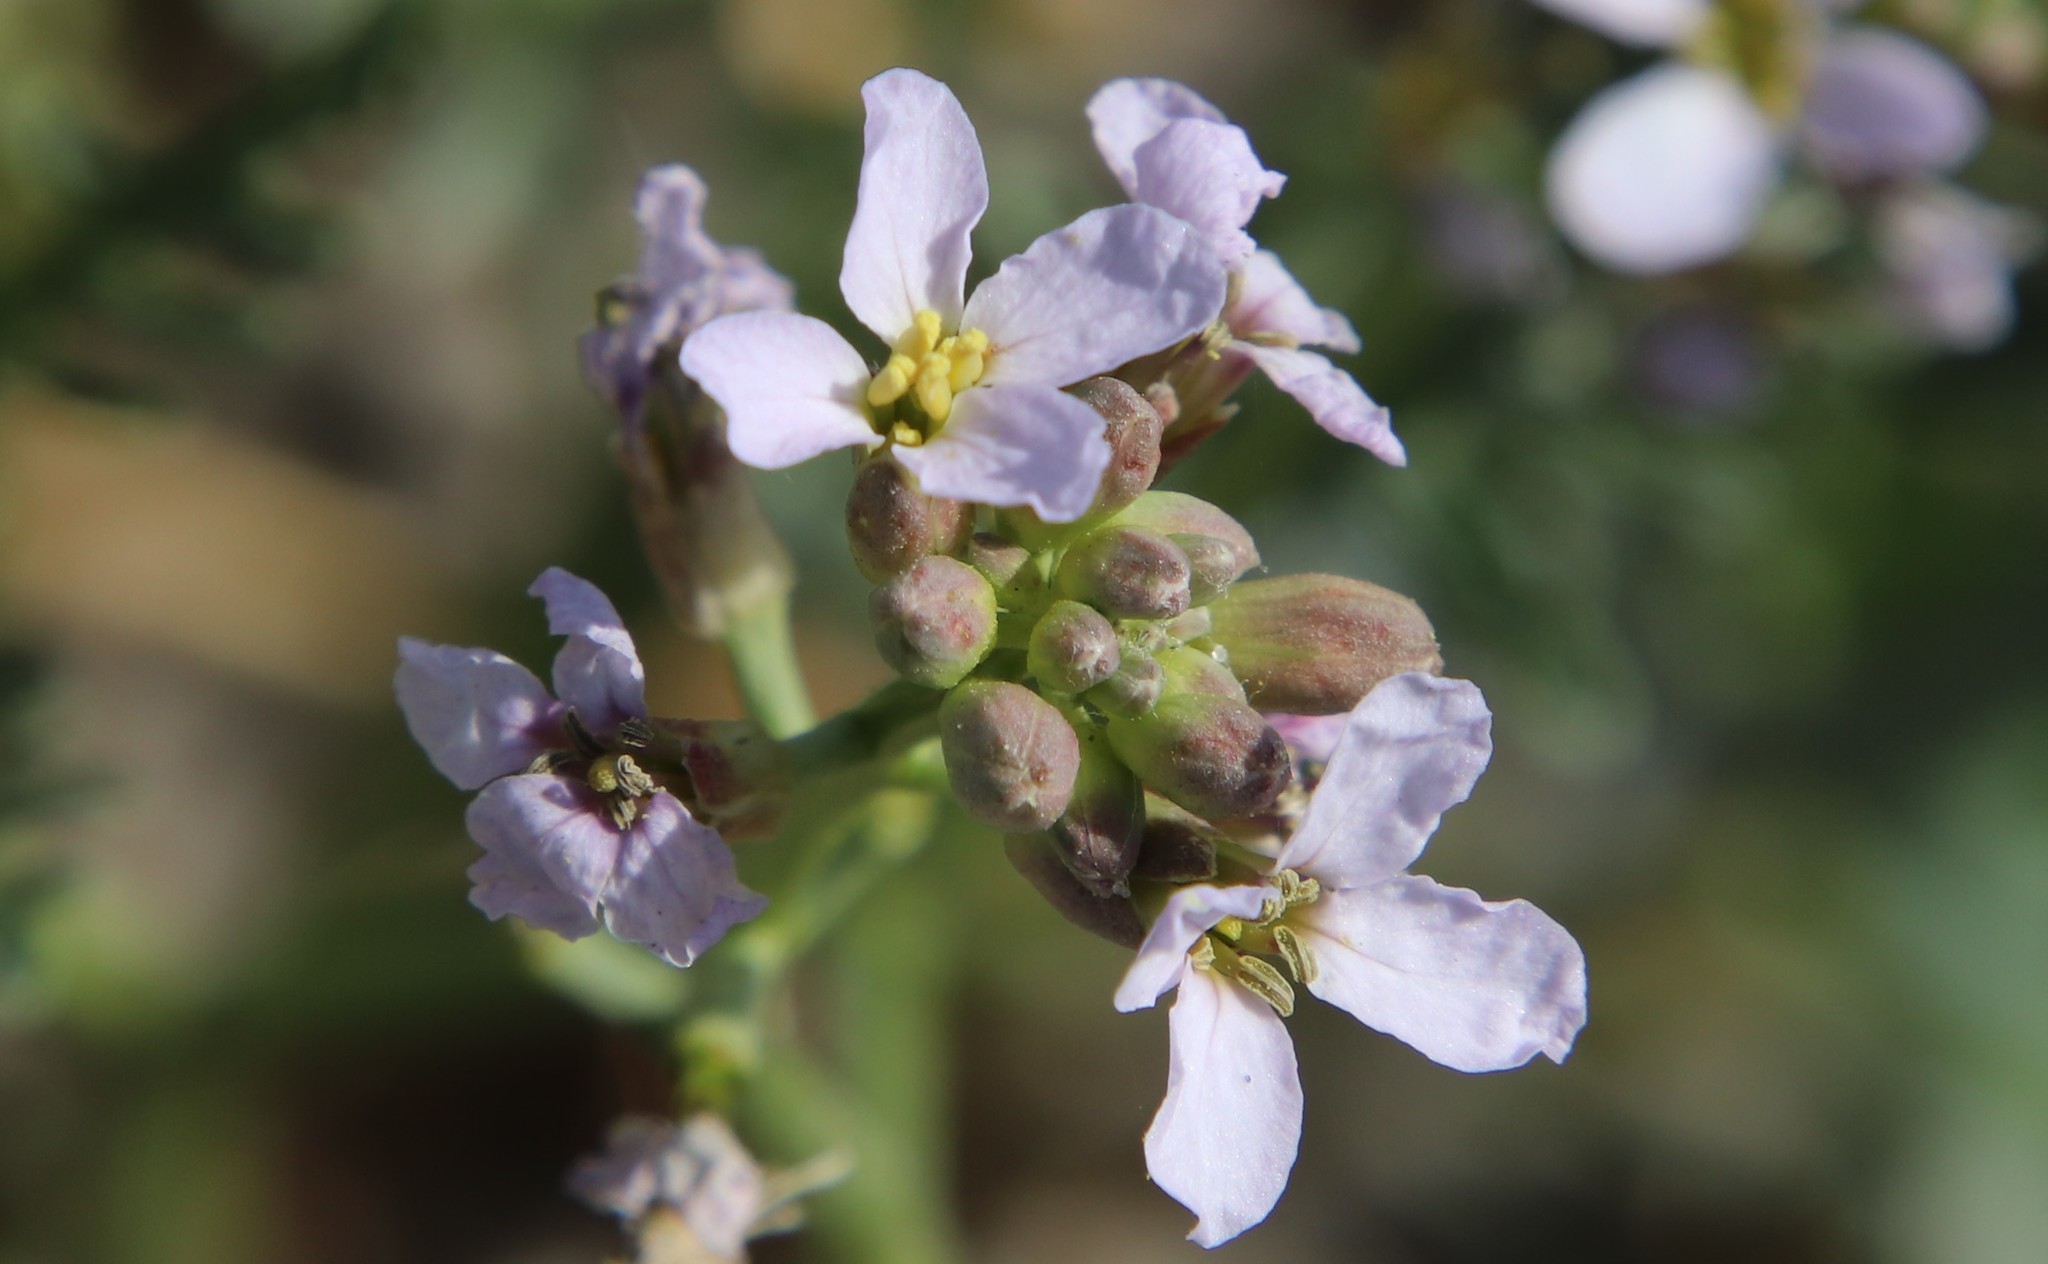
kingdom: Plantae
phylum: Tracheophyta
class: Magnoliopsida
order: Brassicales
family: Brassicaceae
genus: Cakile
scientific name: Cakile maritima
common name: Sea rocket
